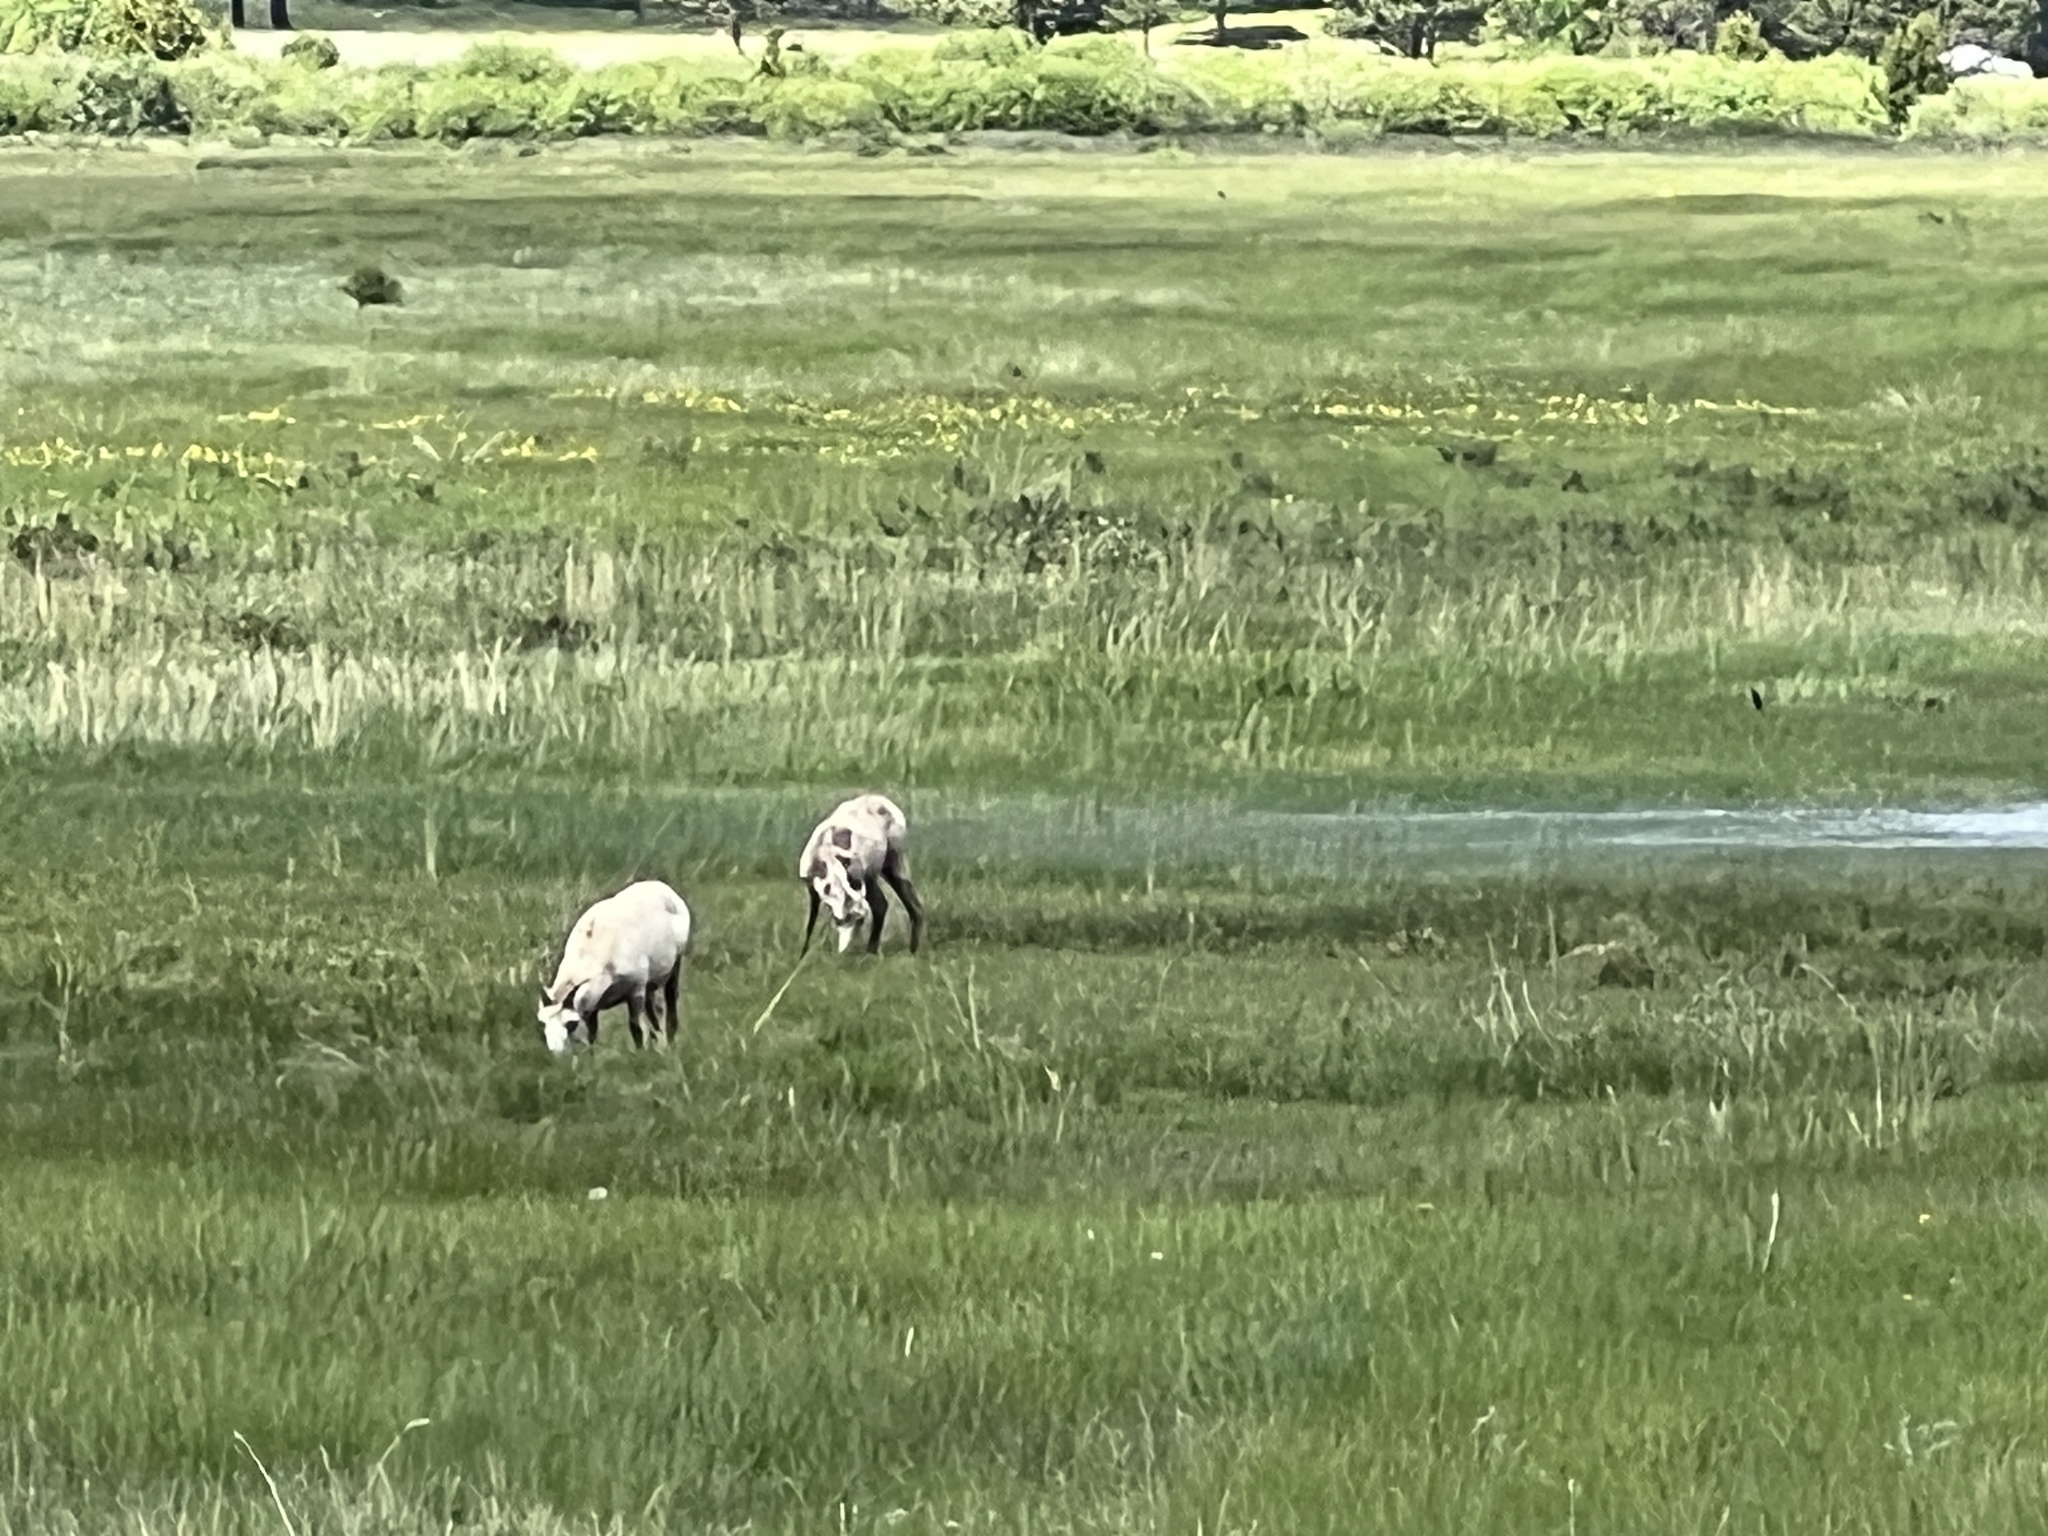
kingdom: Animalia
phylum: Chordata
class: Mammalia
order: Artiodactyla
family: Bovidae
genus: Ovis
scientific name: Ovis canadensis
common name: Bighorn sheep
